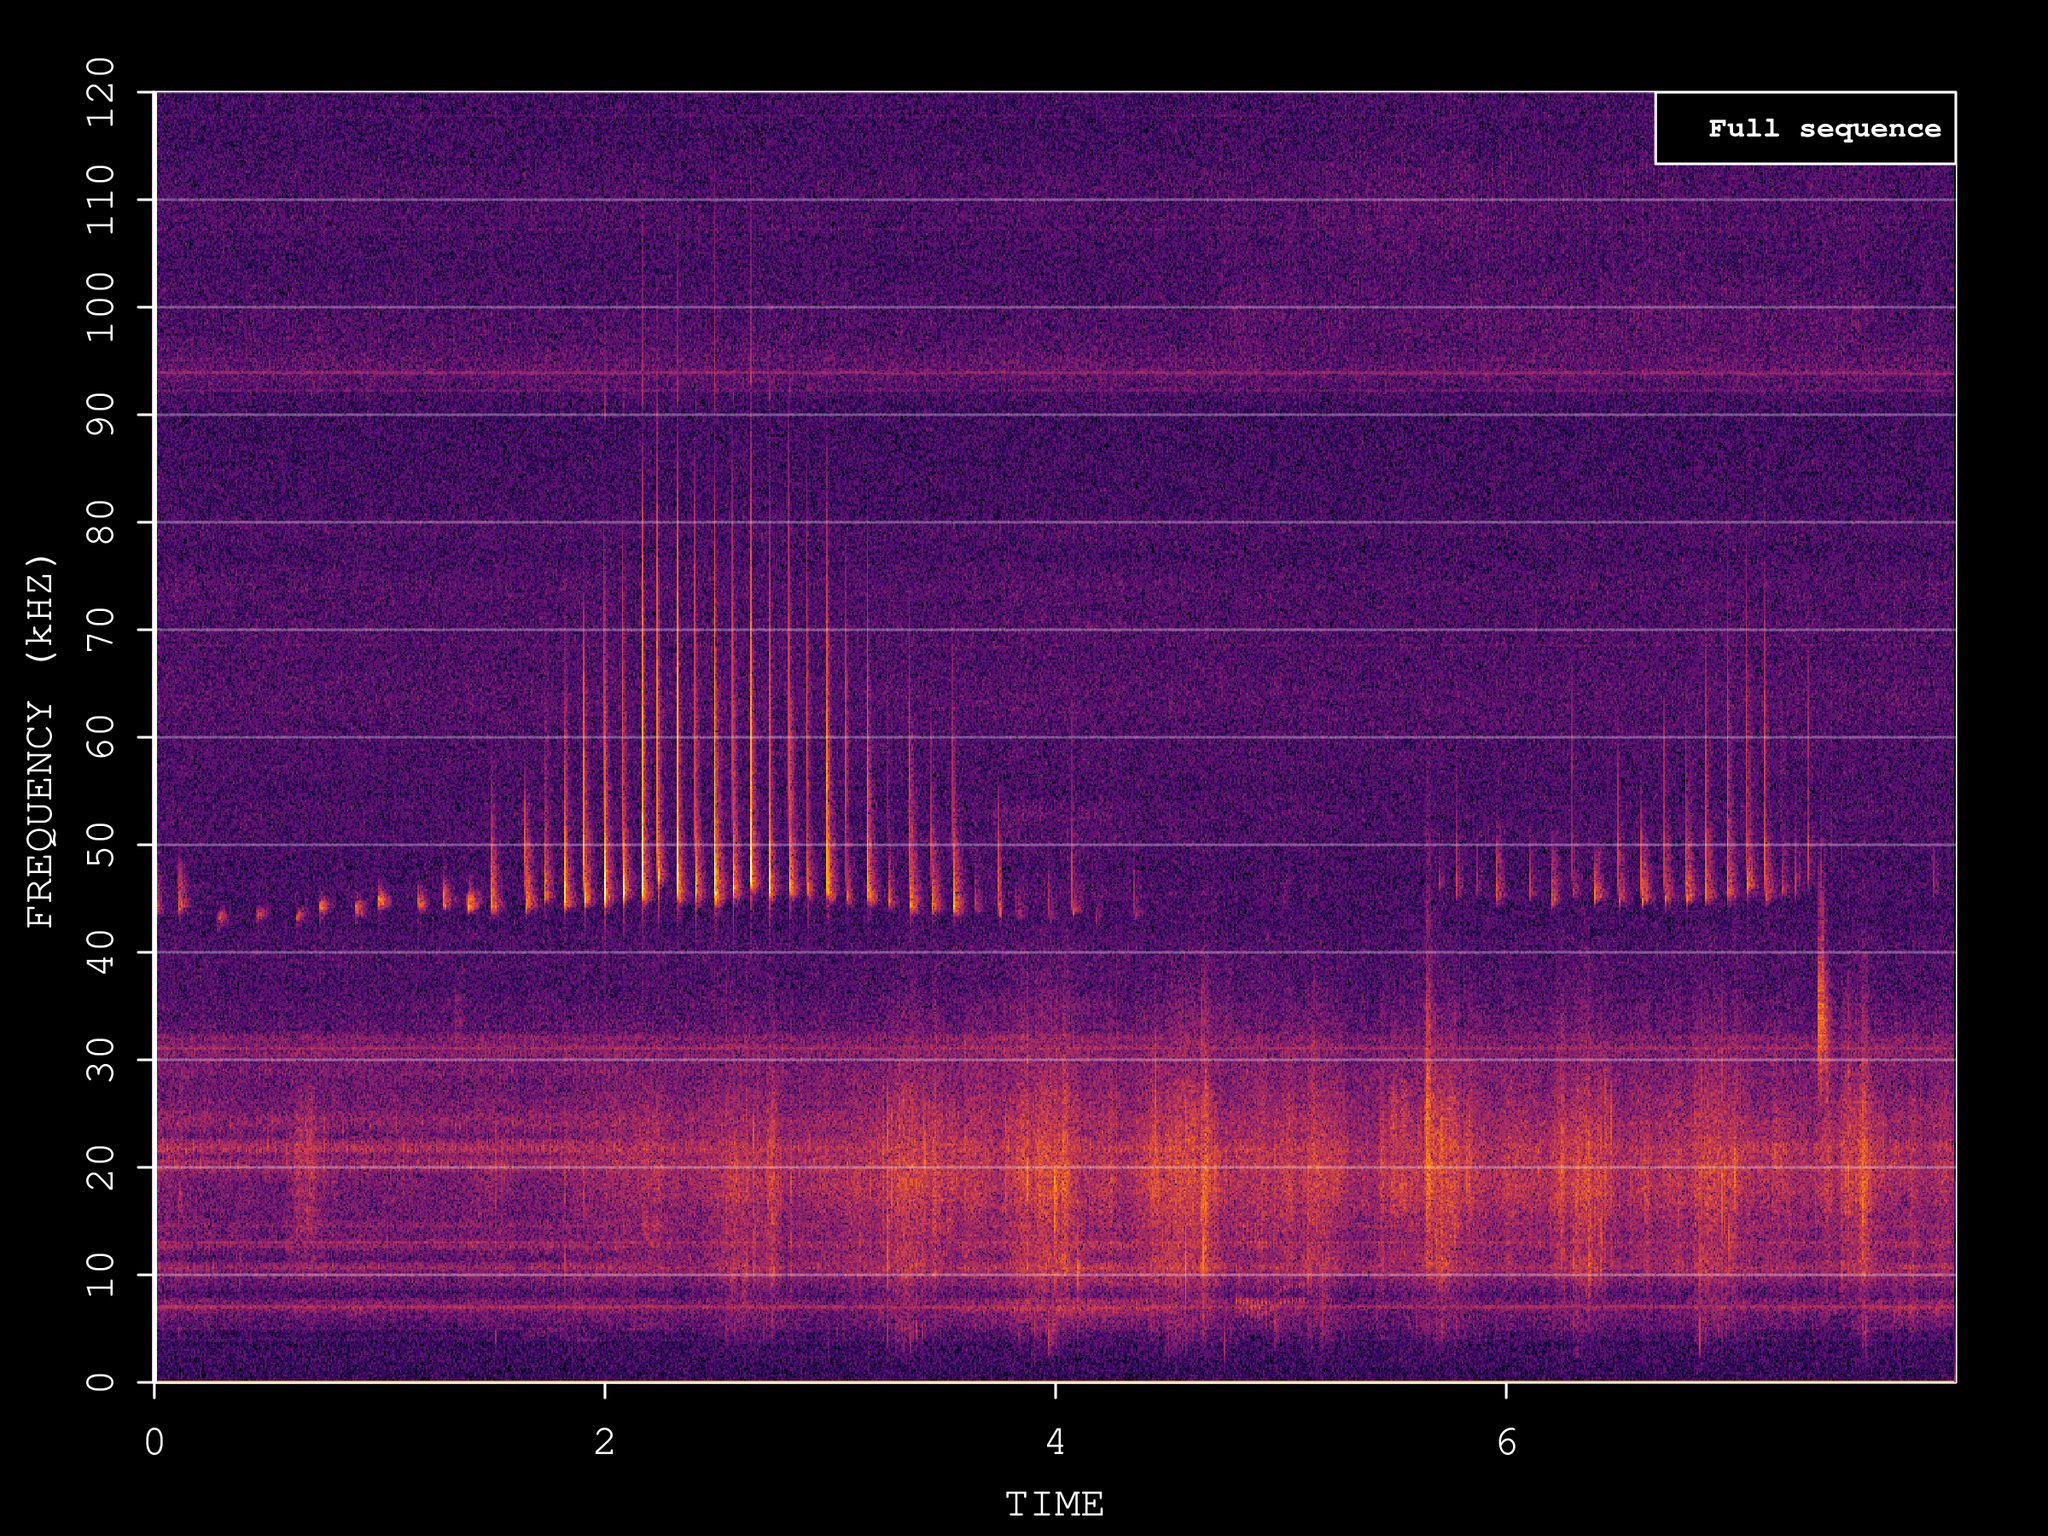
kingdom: Animalia
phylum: Chordata
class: Mammalia
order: Chiroptera
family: Vespertilionidae
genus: Pipistrellus
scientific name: Pipistrellus pipistrellus
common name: Common pipistrelle
